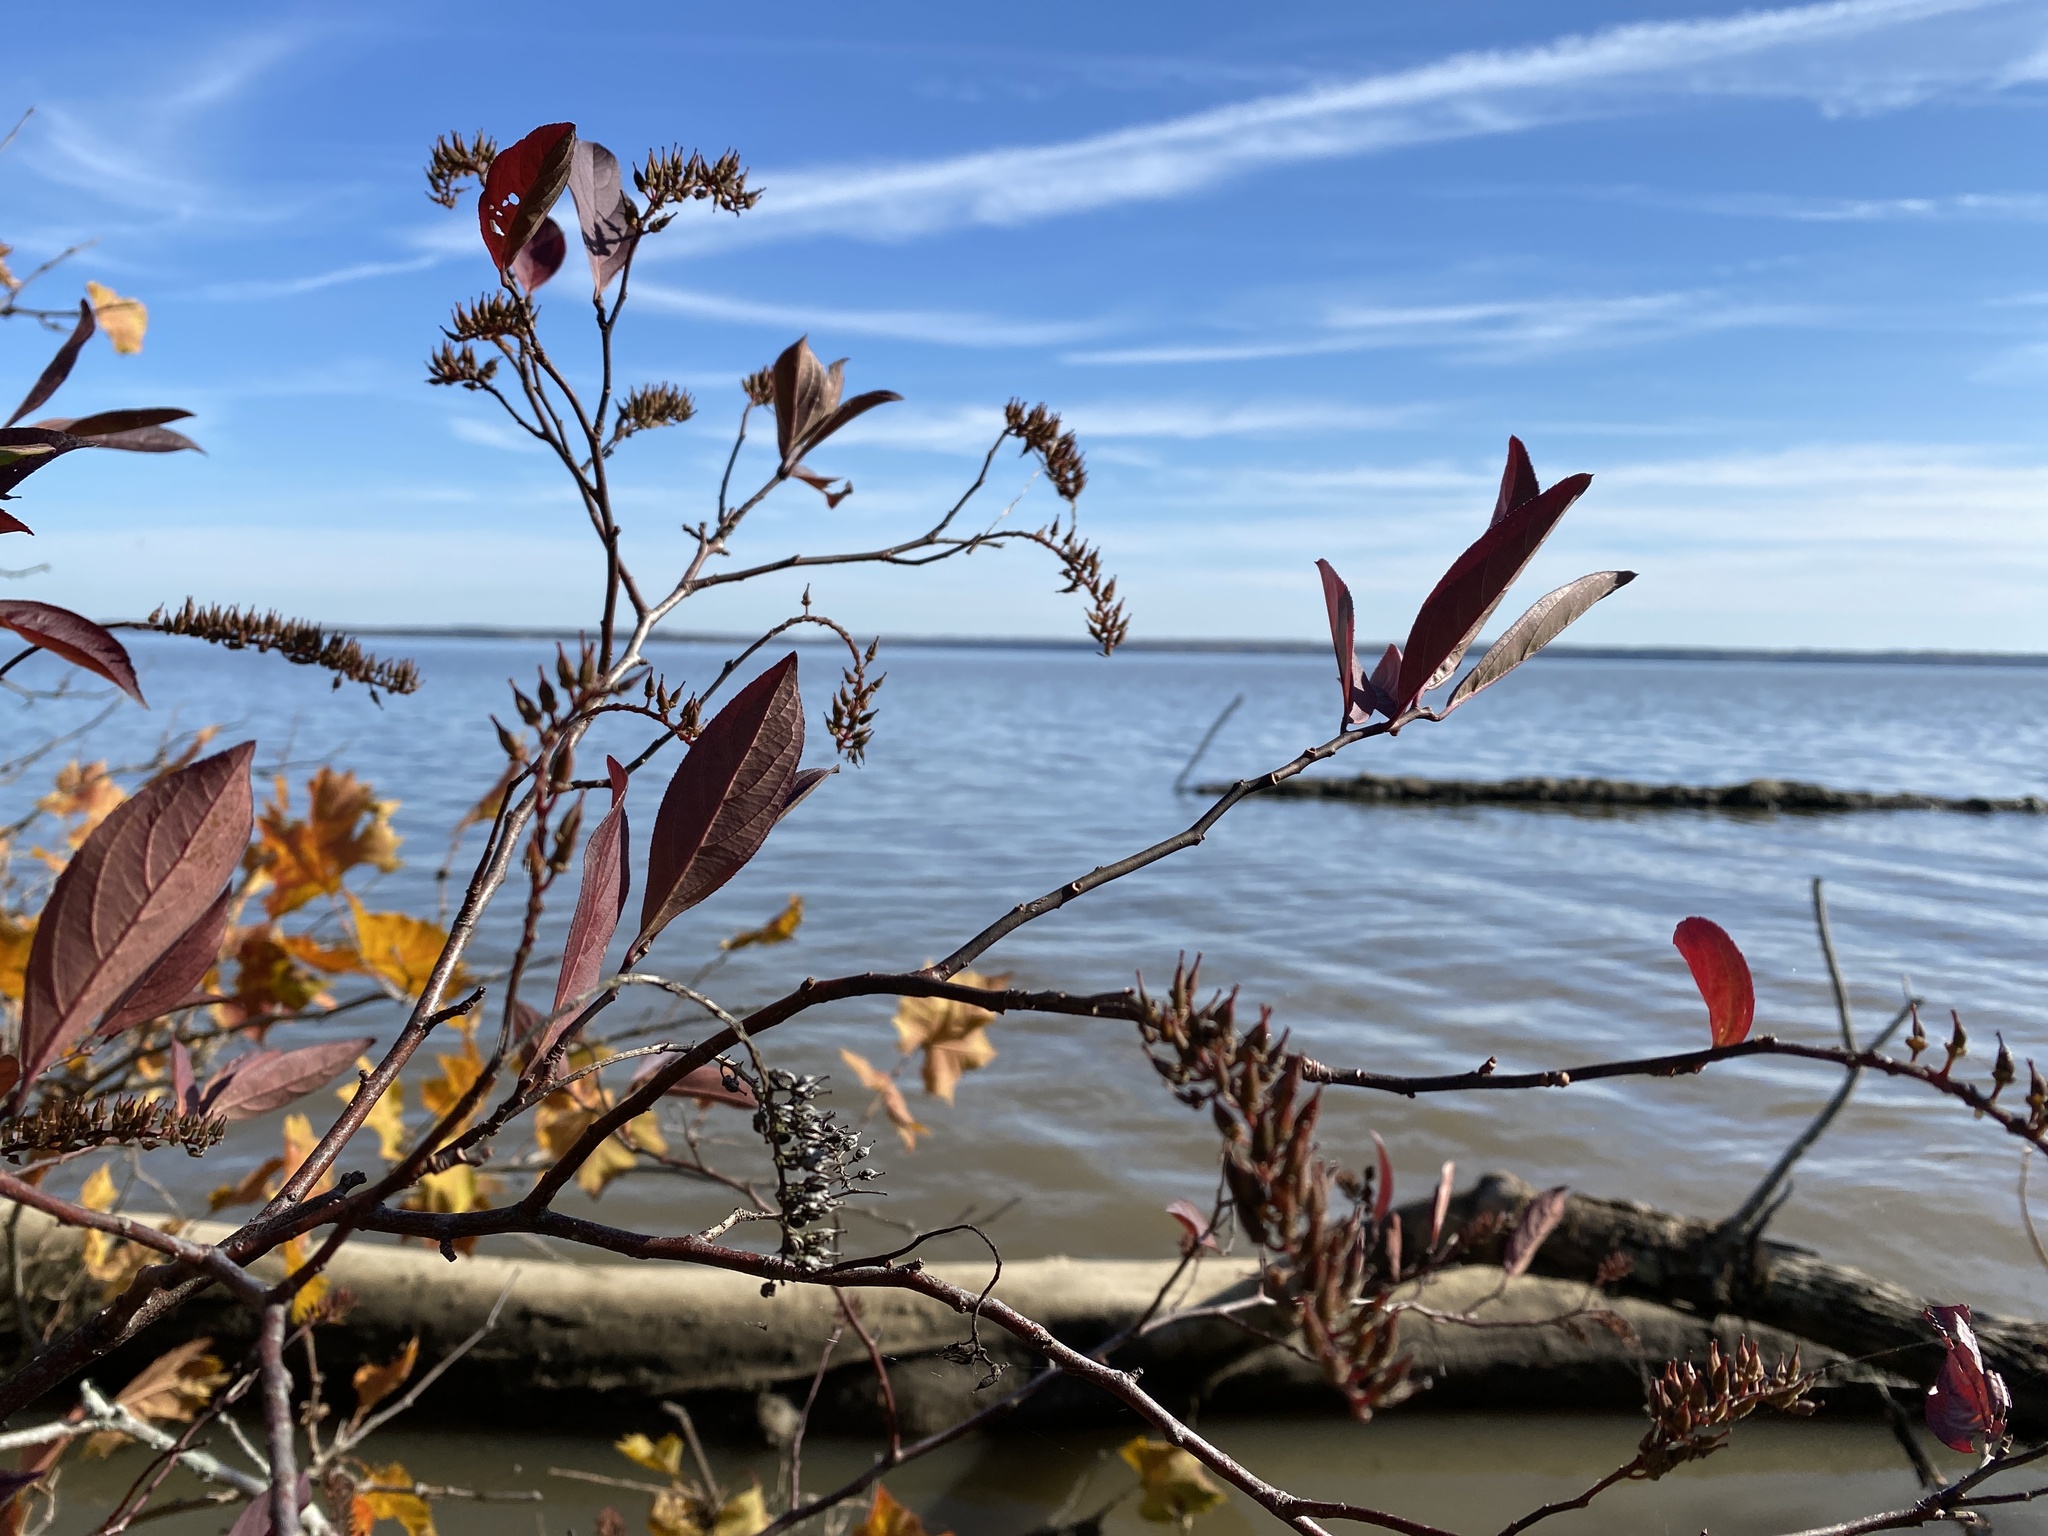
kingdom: Plantae
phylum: Tracheophyta
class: Magnoliopsida
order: Saxifragales
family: Iteaceae
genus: Itea
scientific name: Itea virginica
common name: Sweetspire
